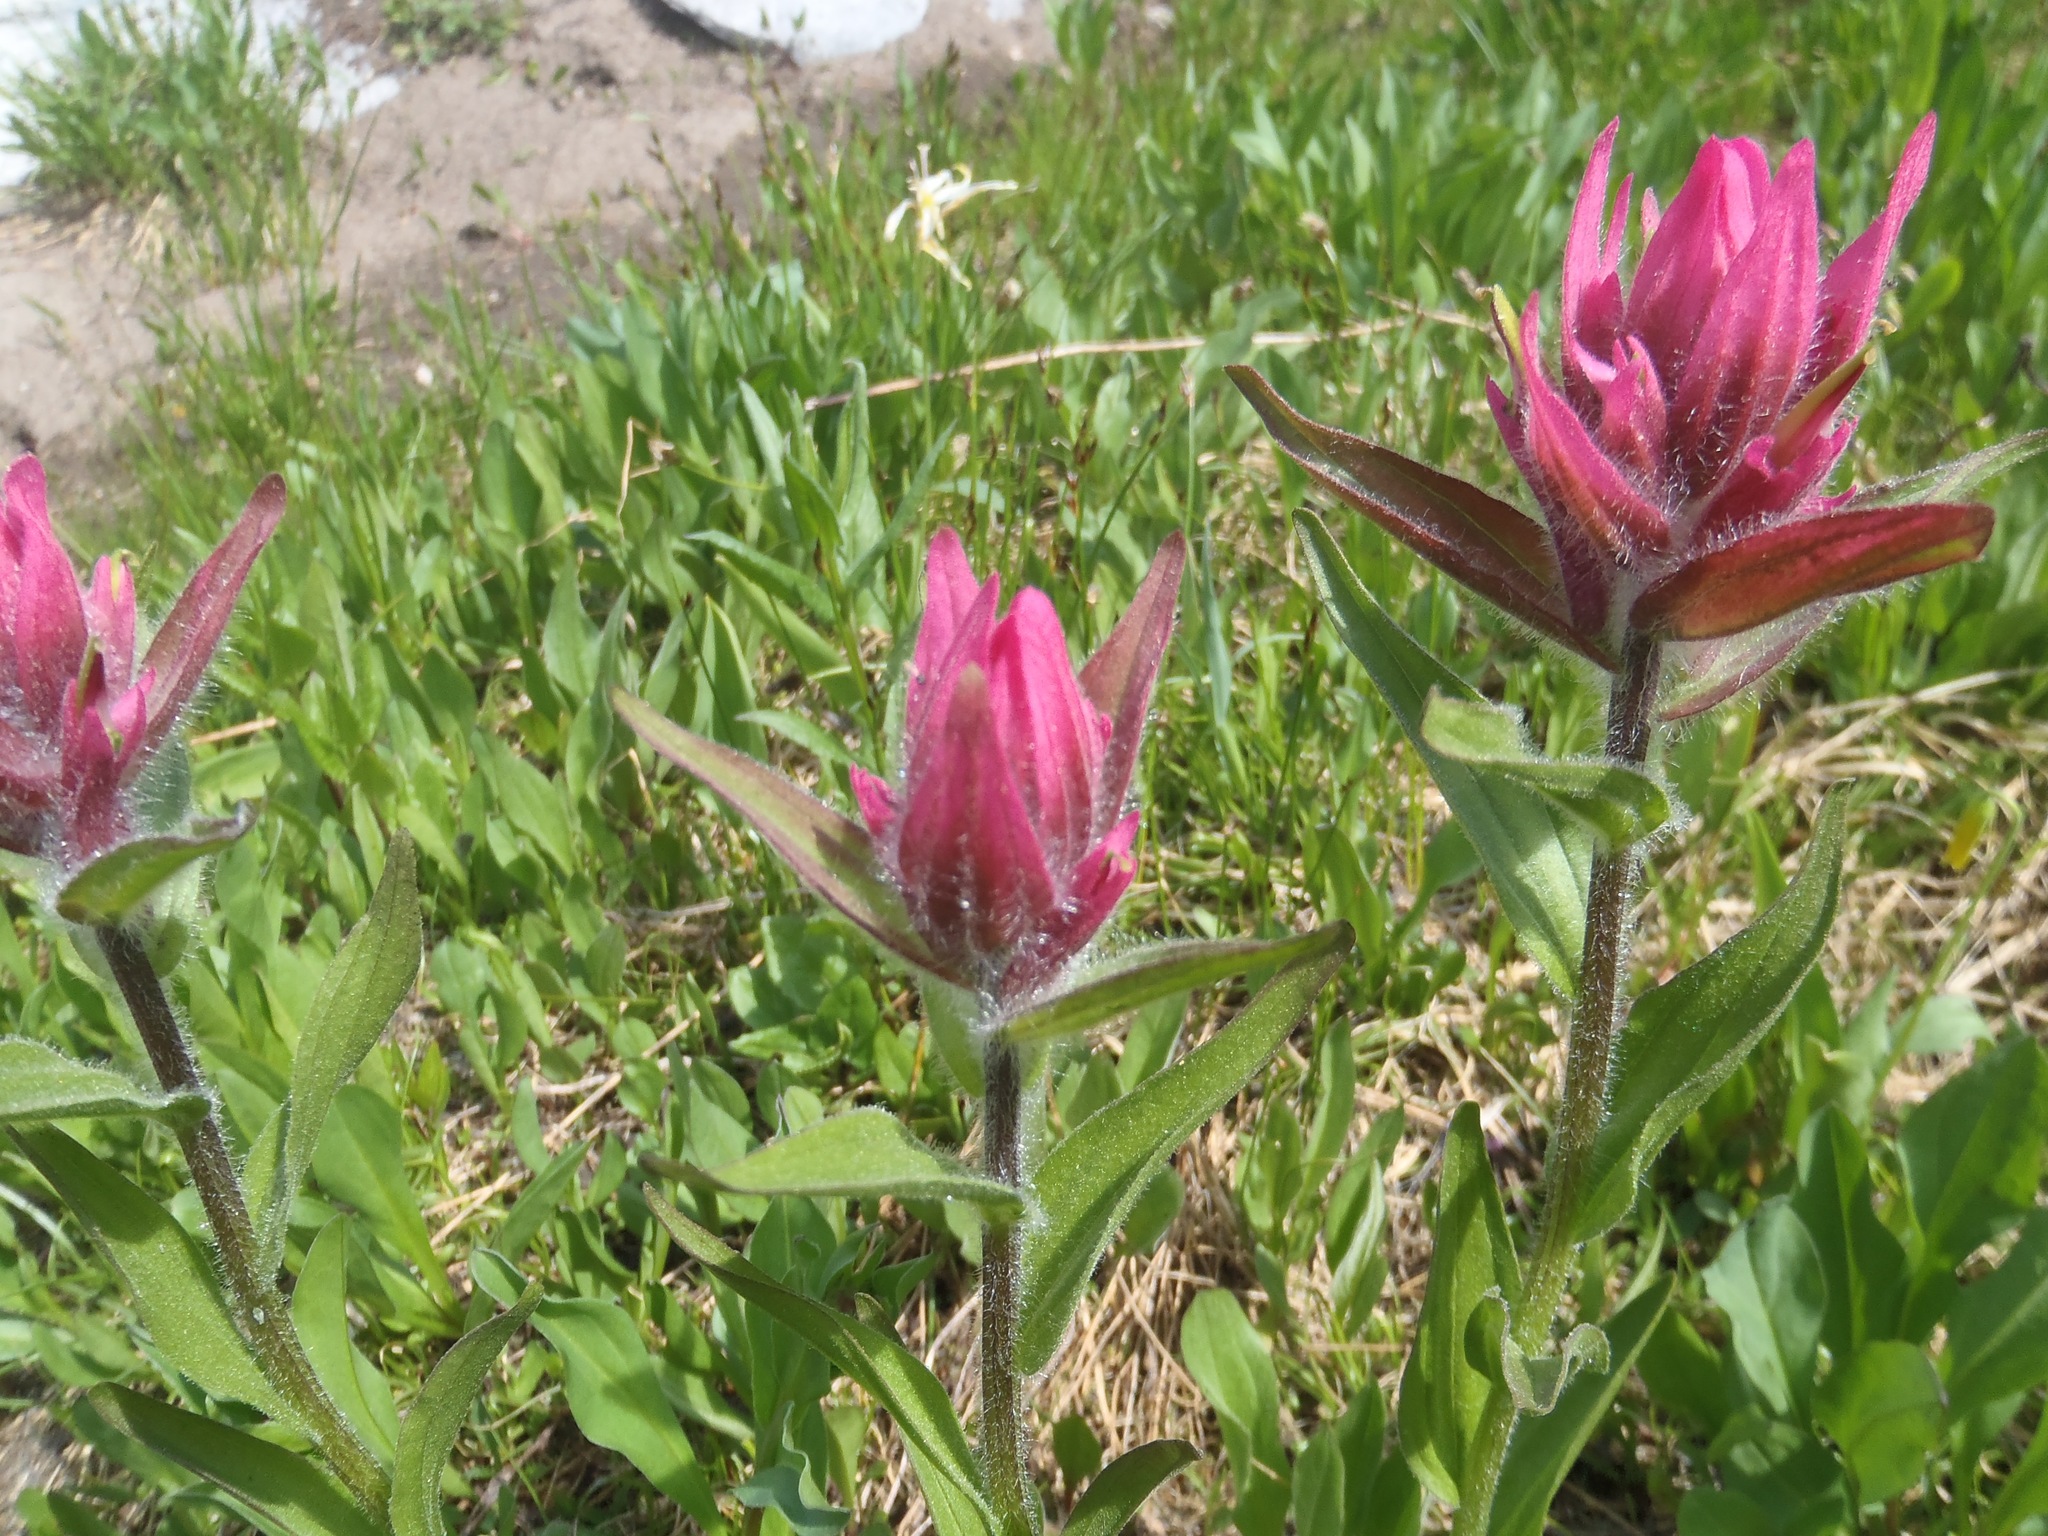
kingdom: Plantae
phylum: Tracheophyta
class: Magnoliopsida
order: Lamiales
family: Orobanchaceae
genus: Castilleja
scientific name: Castilleja rhexifolia
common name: Rocky mountain paintbrush
